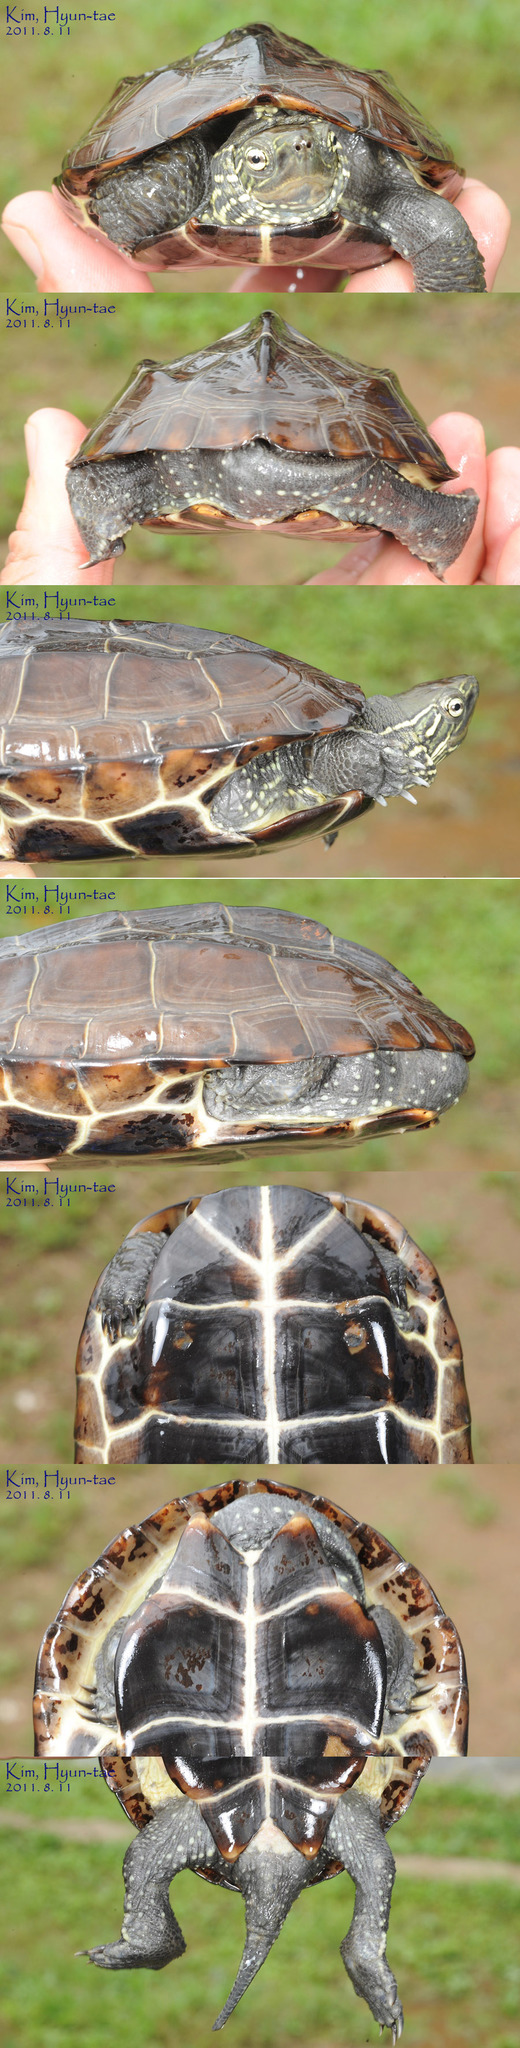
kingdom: Animalia
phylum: Chordata
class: Testudines
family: Geoemydidae
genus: Mauremys
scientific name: Mauremys reevesii
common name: Chinese pond turtle
